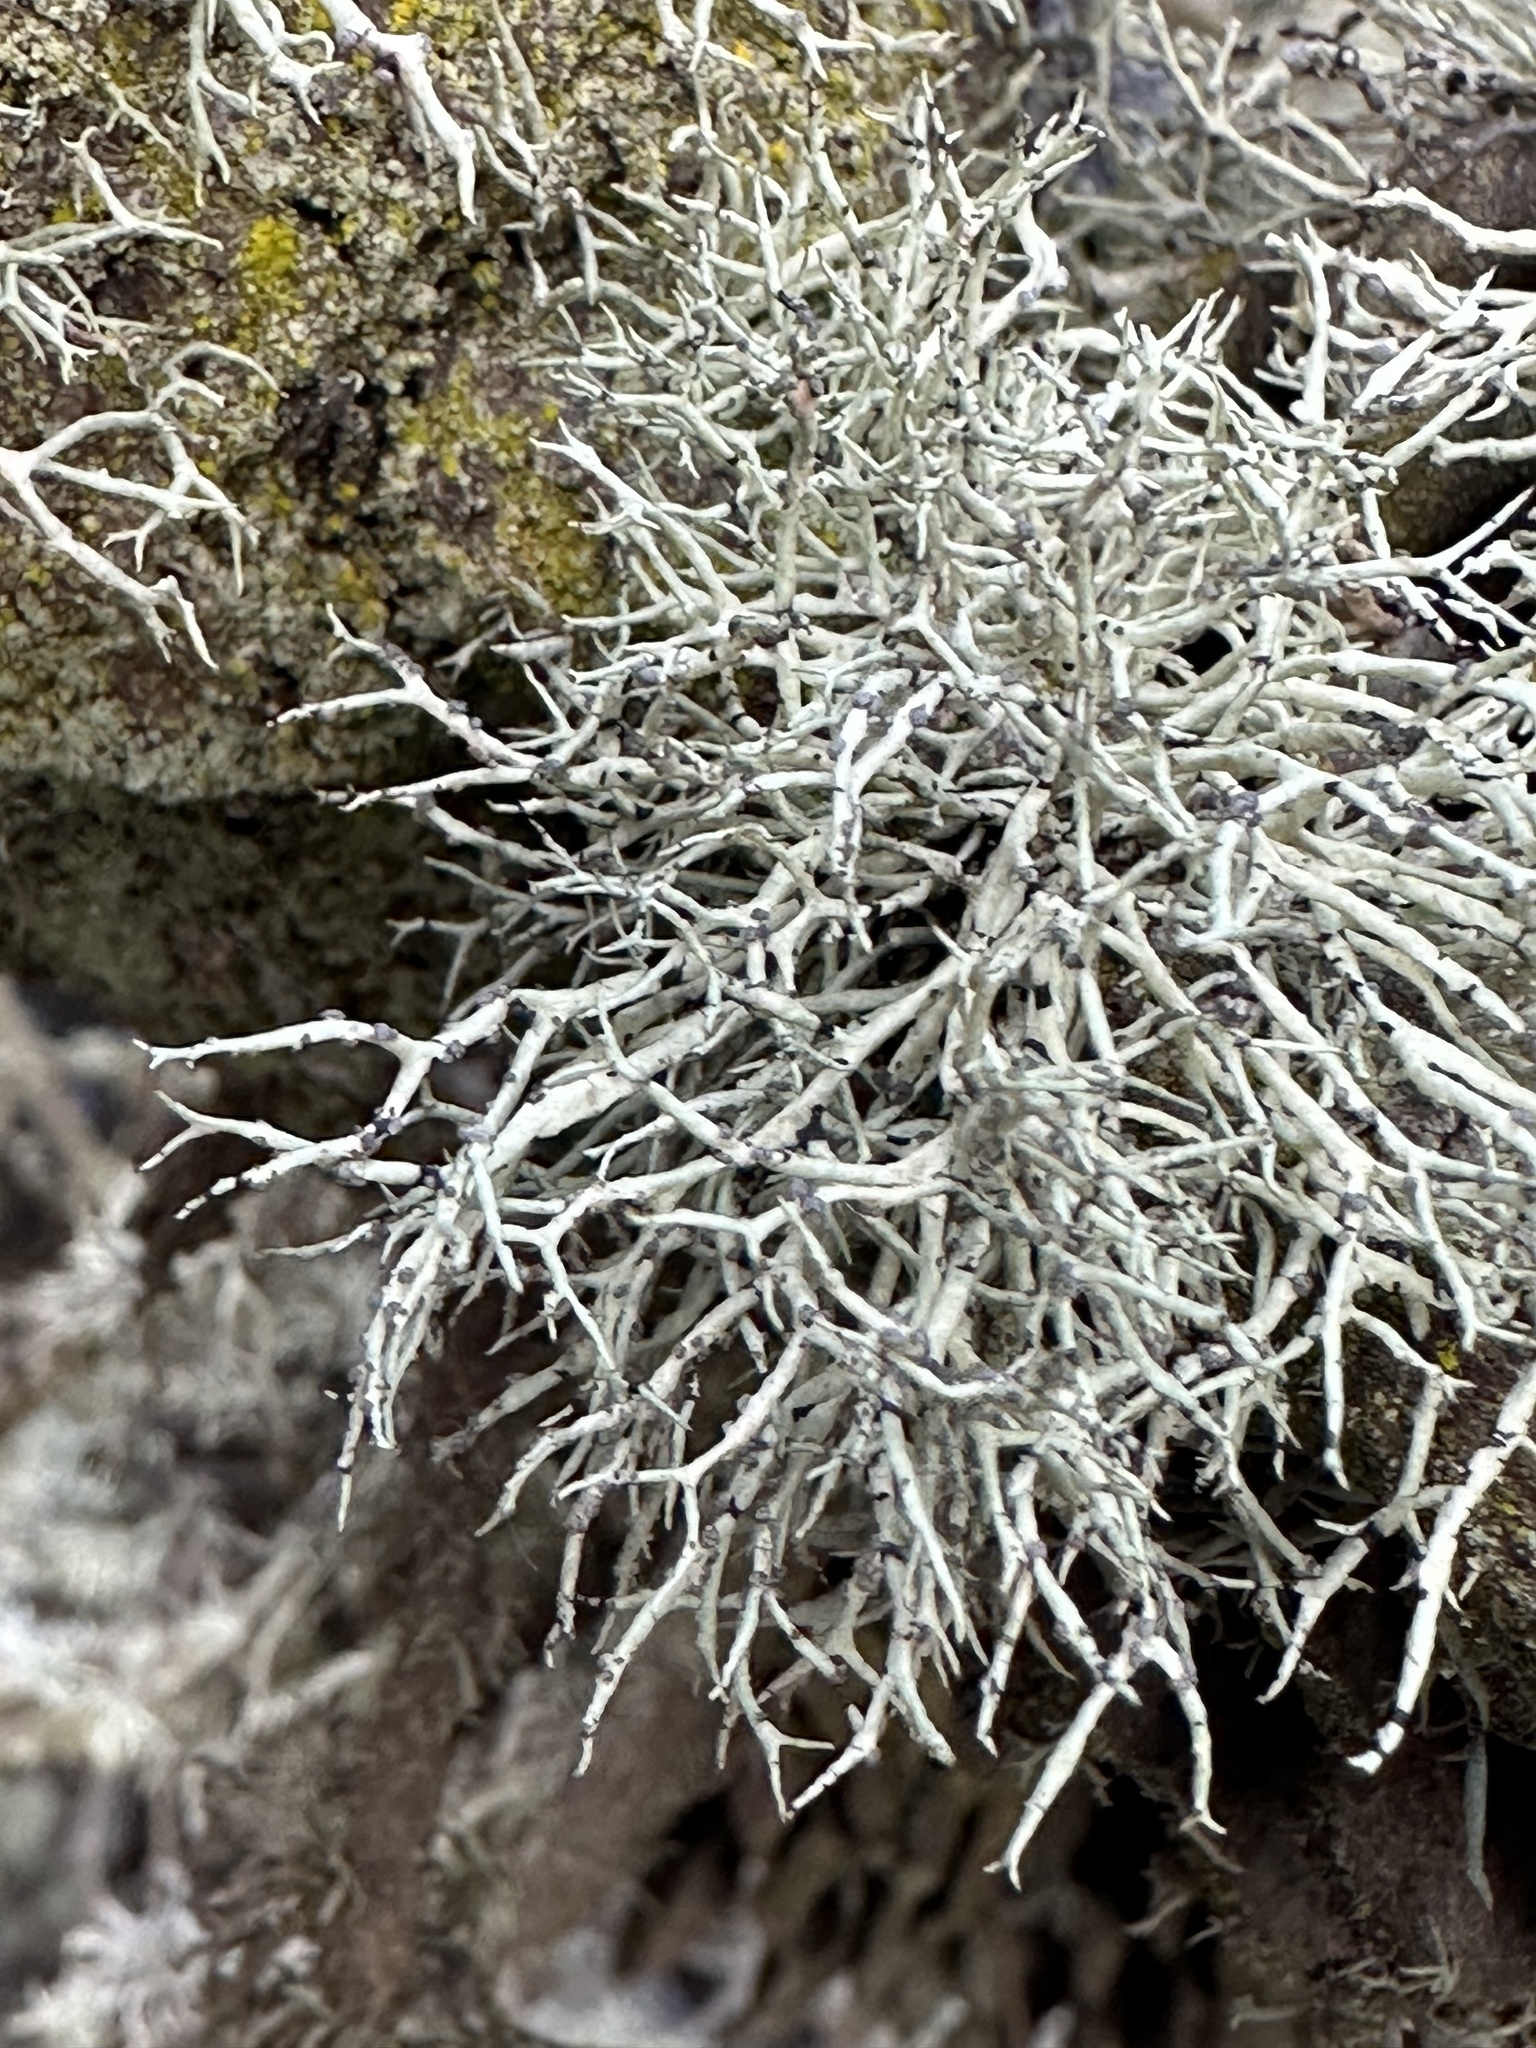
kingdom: Fungi
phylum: Ascomycota
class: Lecanoromycetes
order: Lecanorales
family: Ramalinaceae
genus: Niebla
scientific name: Niebla cephalota
